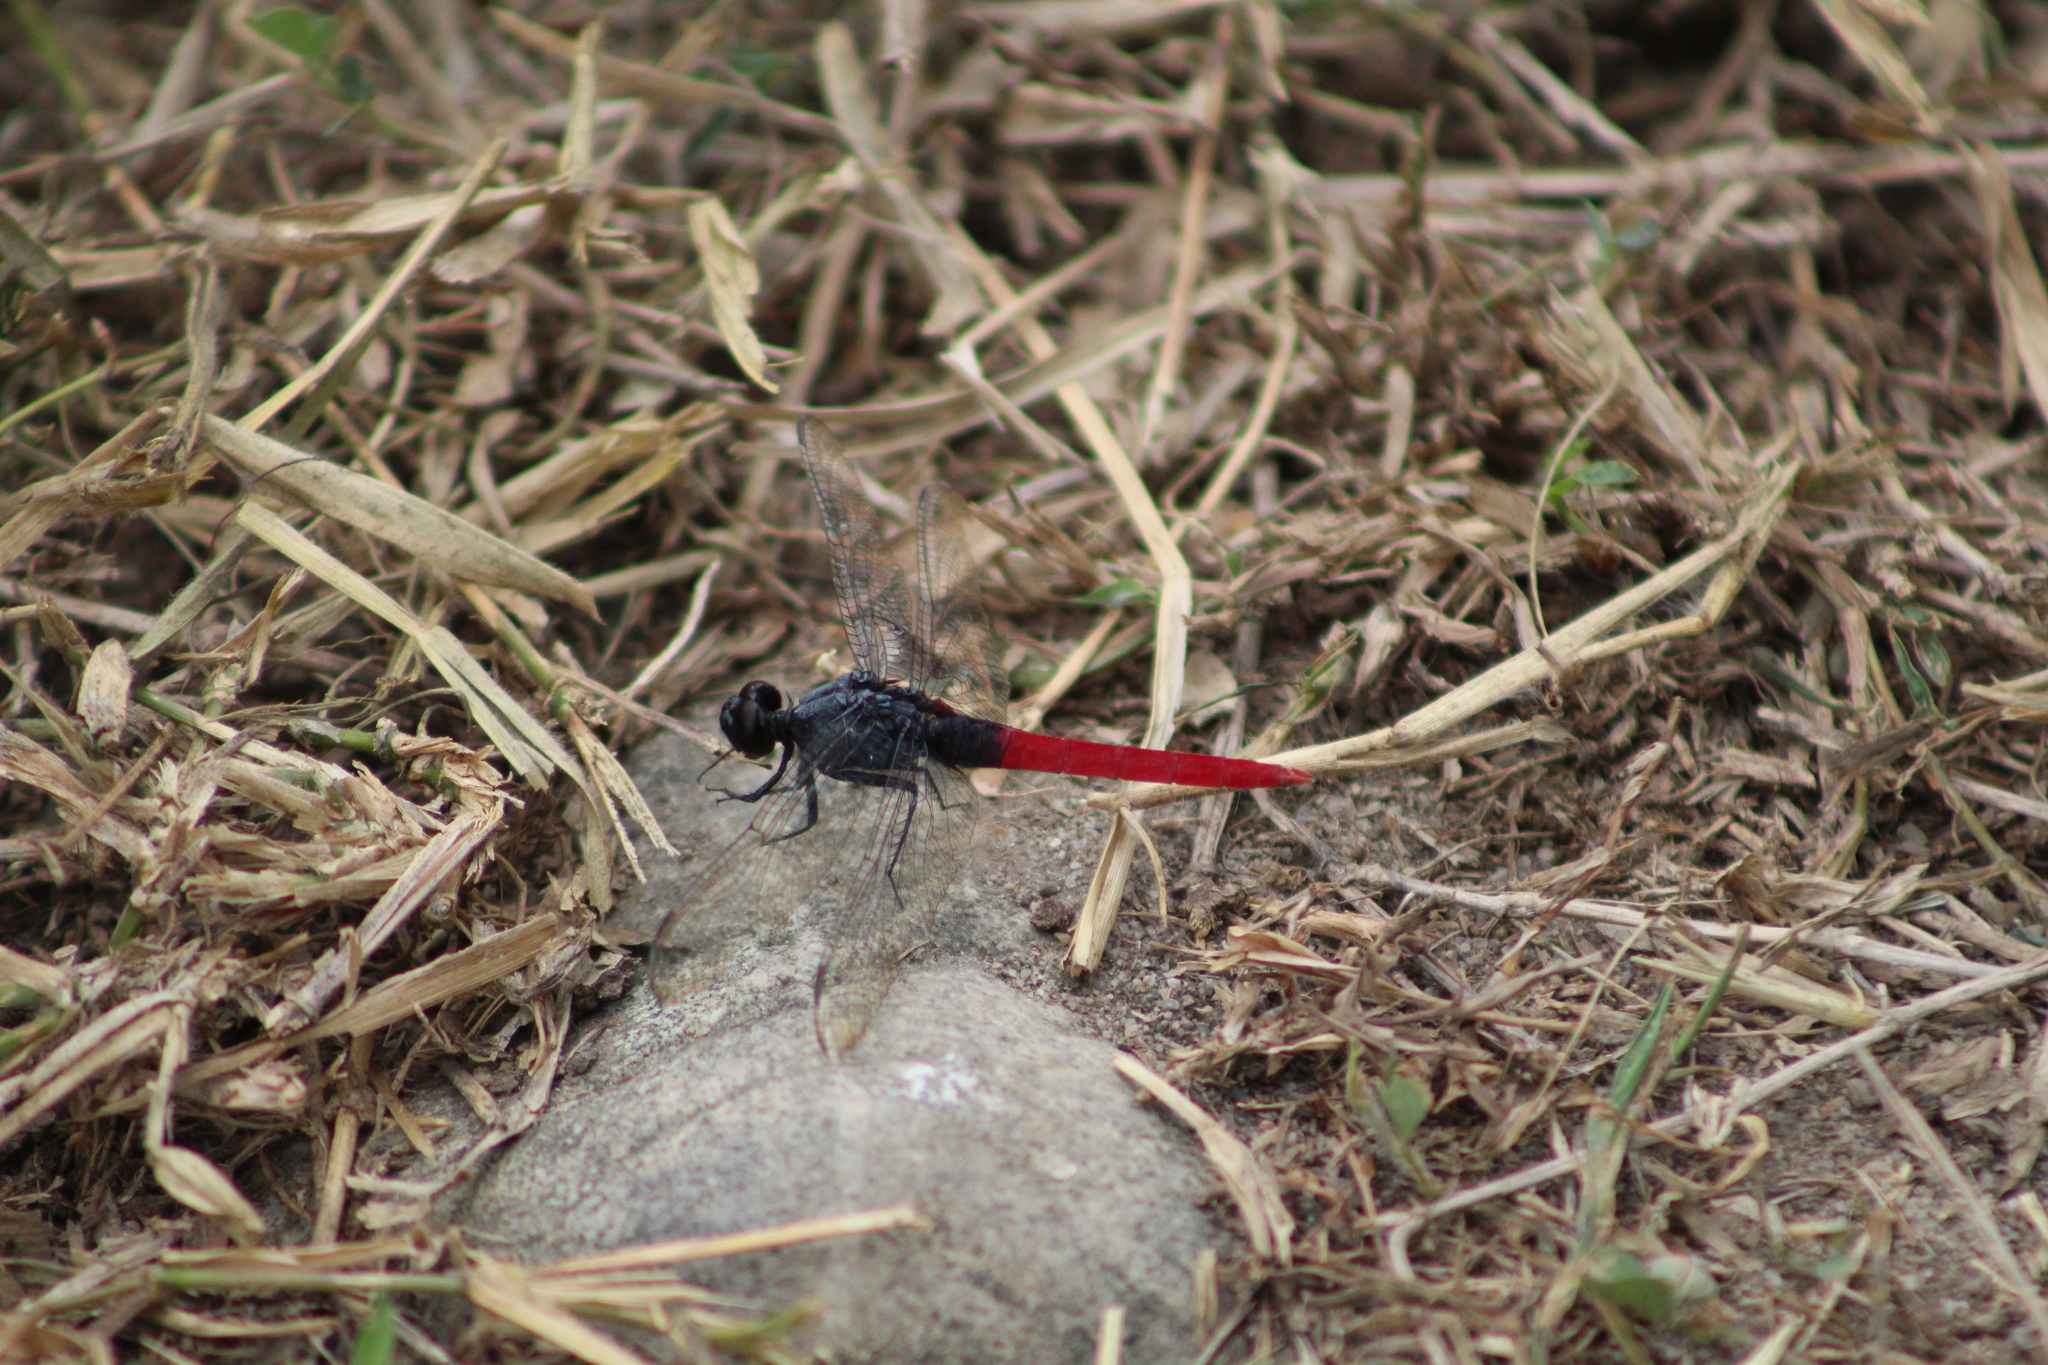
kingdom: Animalia
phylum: Arthropoda
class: Insecta
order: Odonata
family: Libellulidae
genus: Erythemis
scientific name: Erythemis peruviana
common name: Flame-tailed pondhawk
